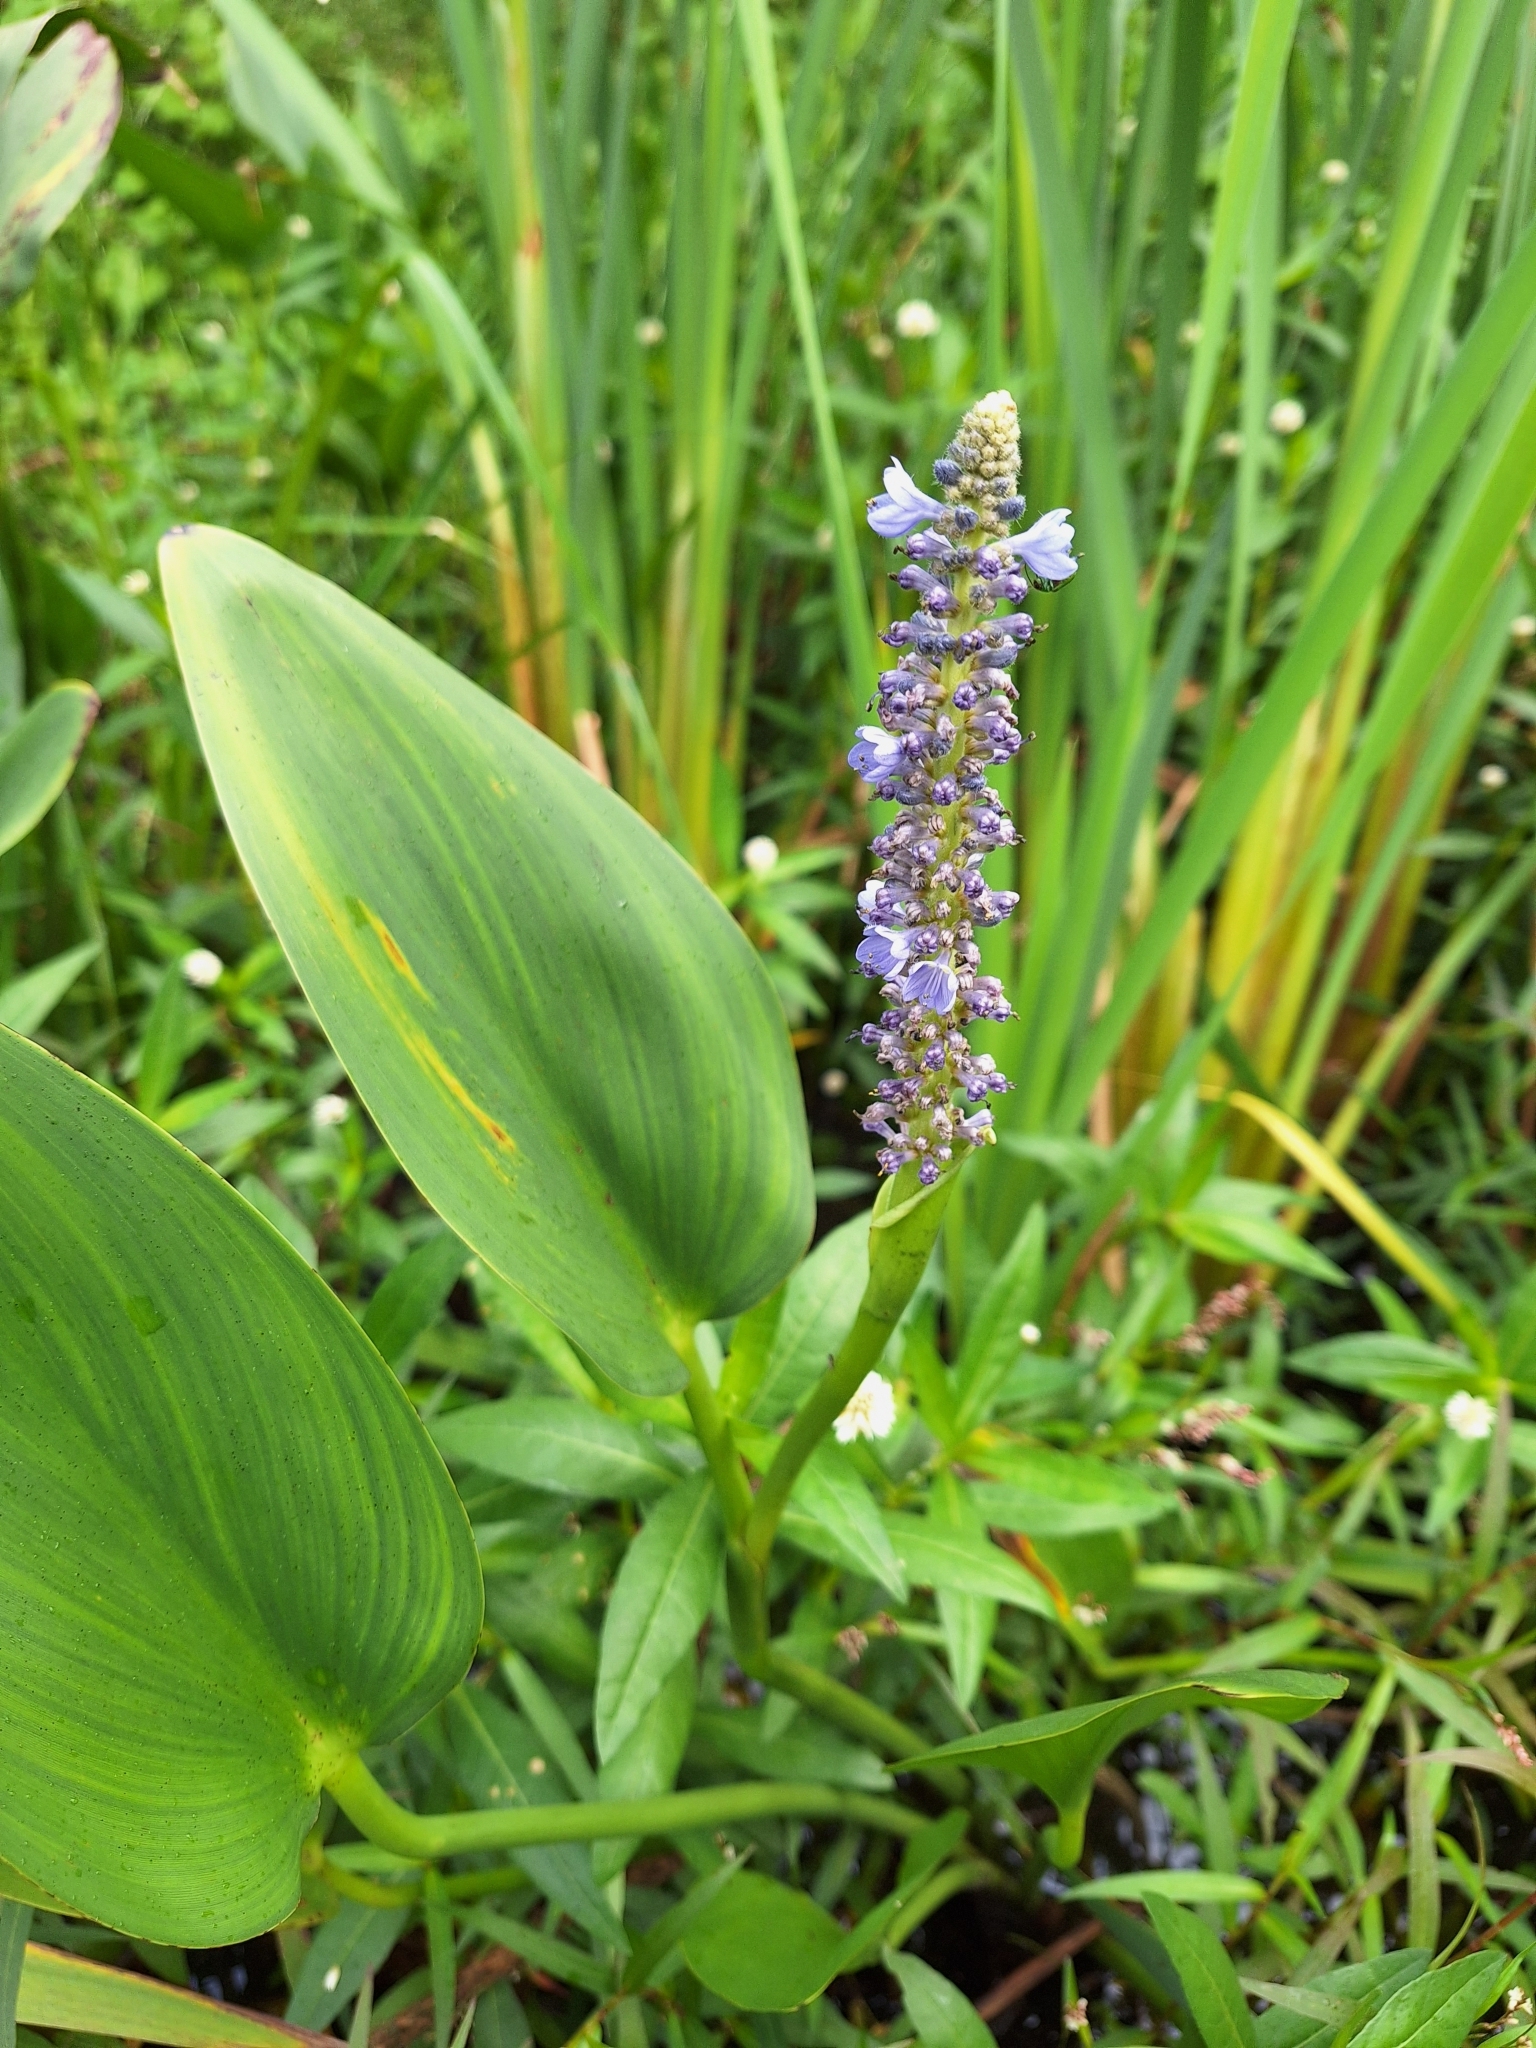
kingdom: Plantae
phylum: Tracheophyta
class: Liliopsida
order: Commelinales
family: Pontederiaceae
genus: Pontederia
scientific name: Pontederia cordata
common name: Pickerelweed
